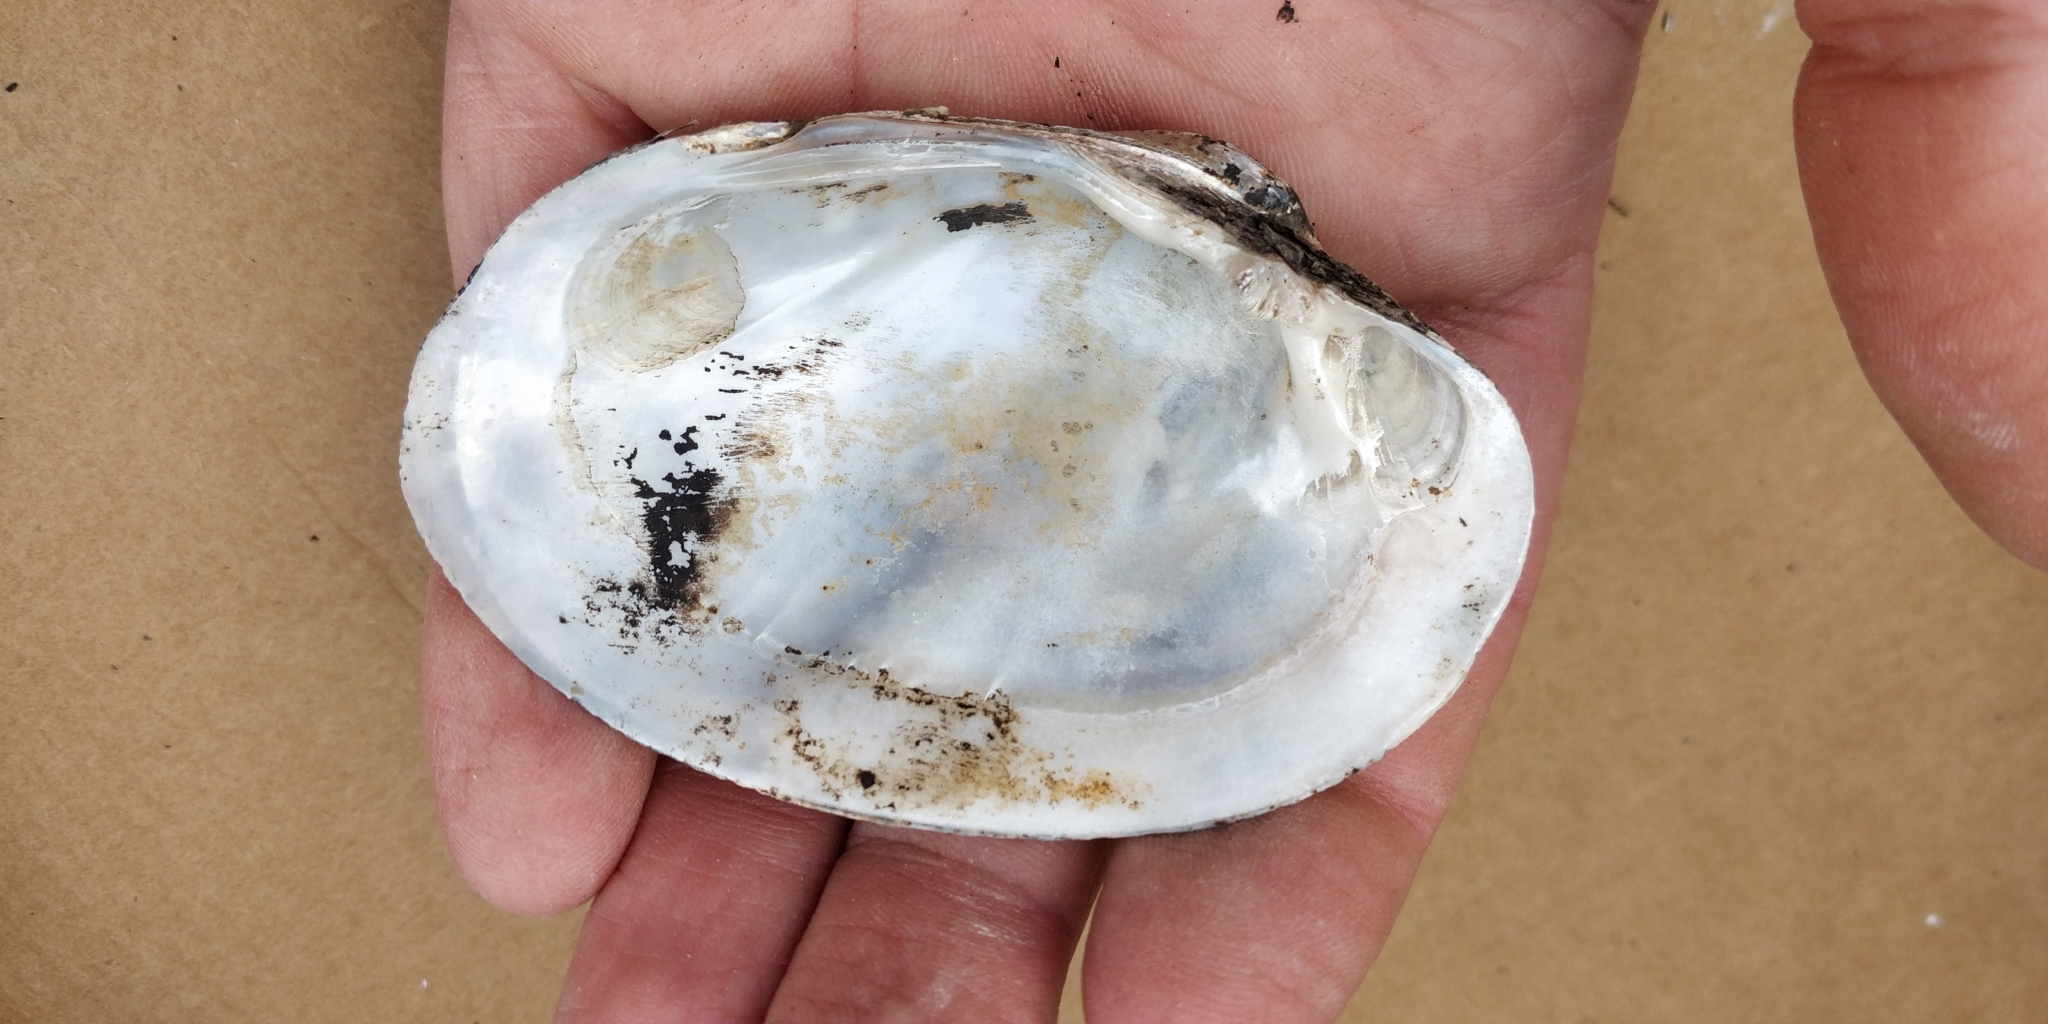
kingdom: Animalia
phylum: Mollusca
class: Bivalvia
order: Unionida
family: Unionidae
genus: Lampsilis
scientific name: Lampsilis cardium
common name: Plain pocketbook
